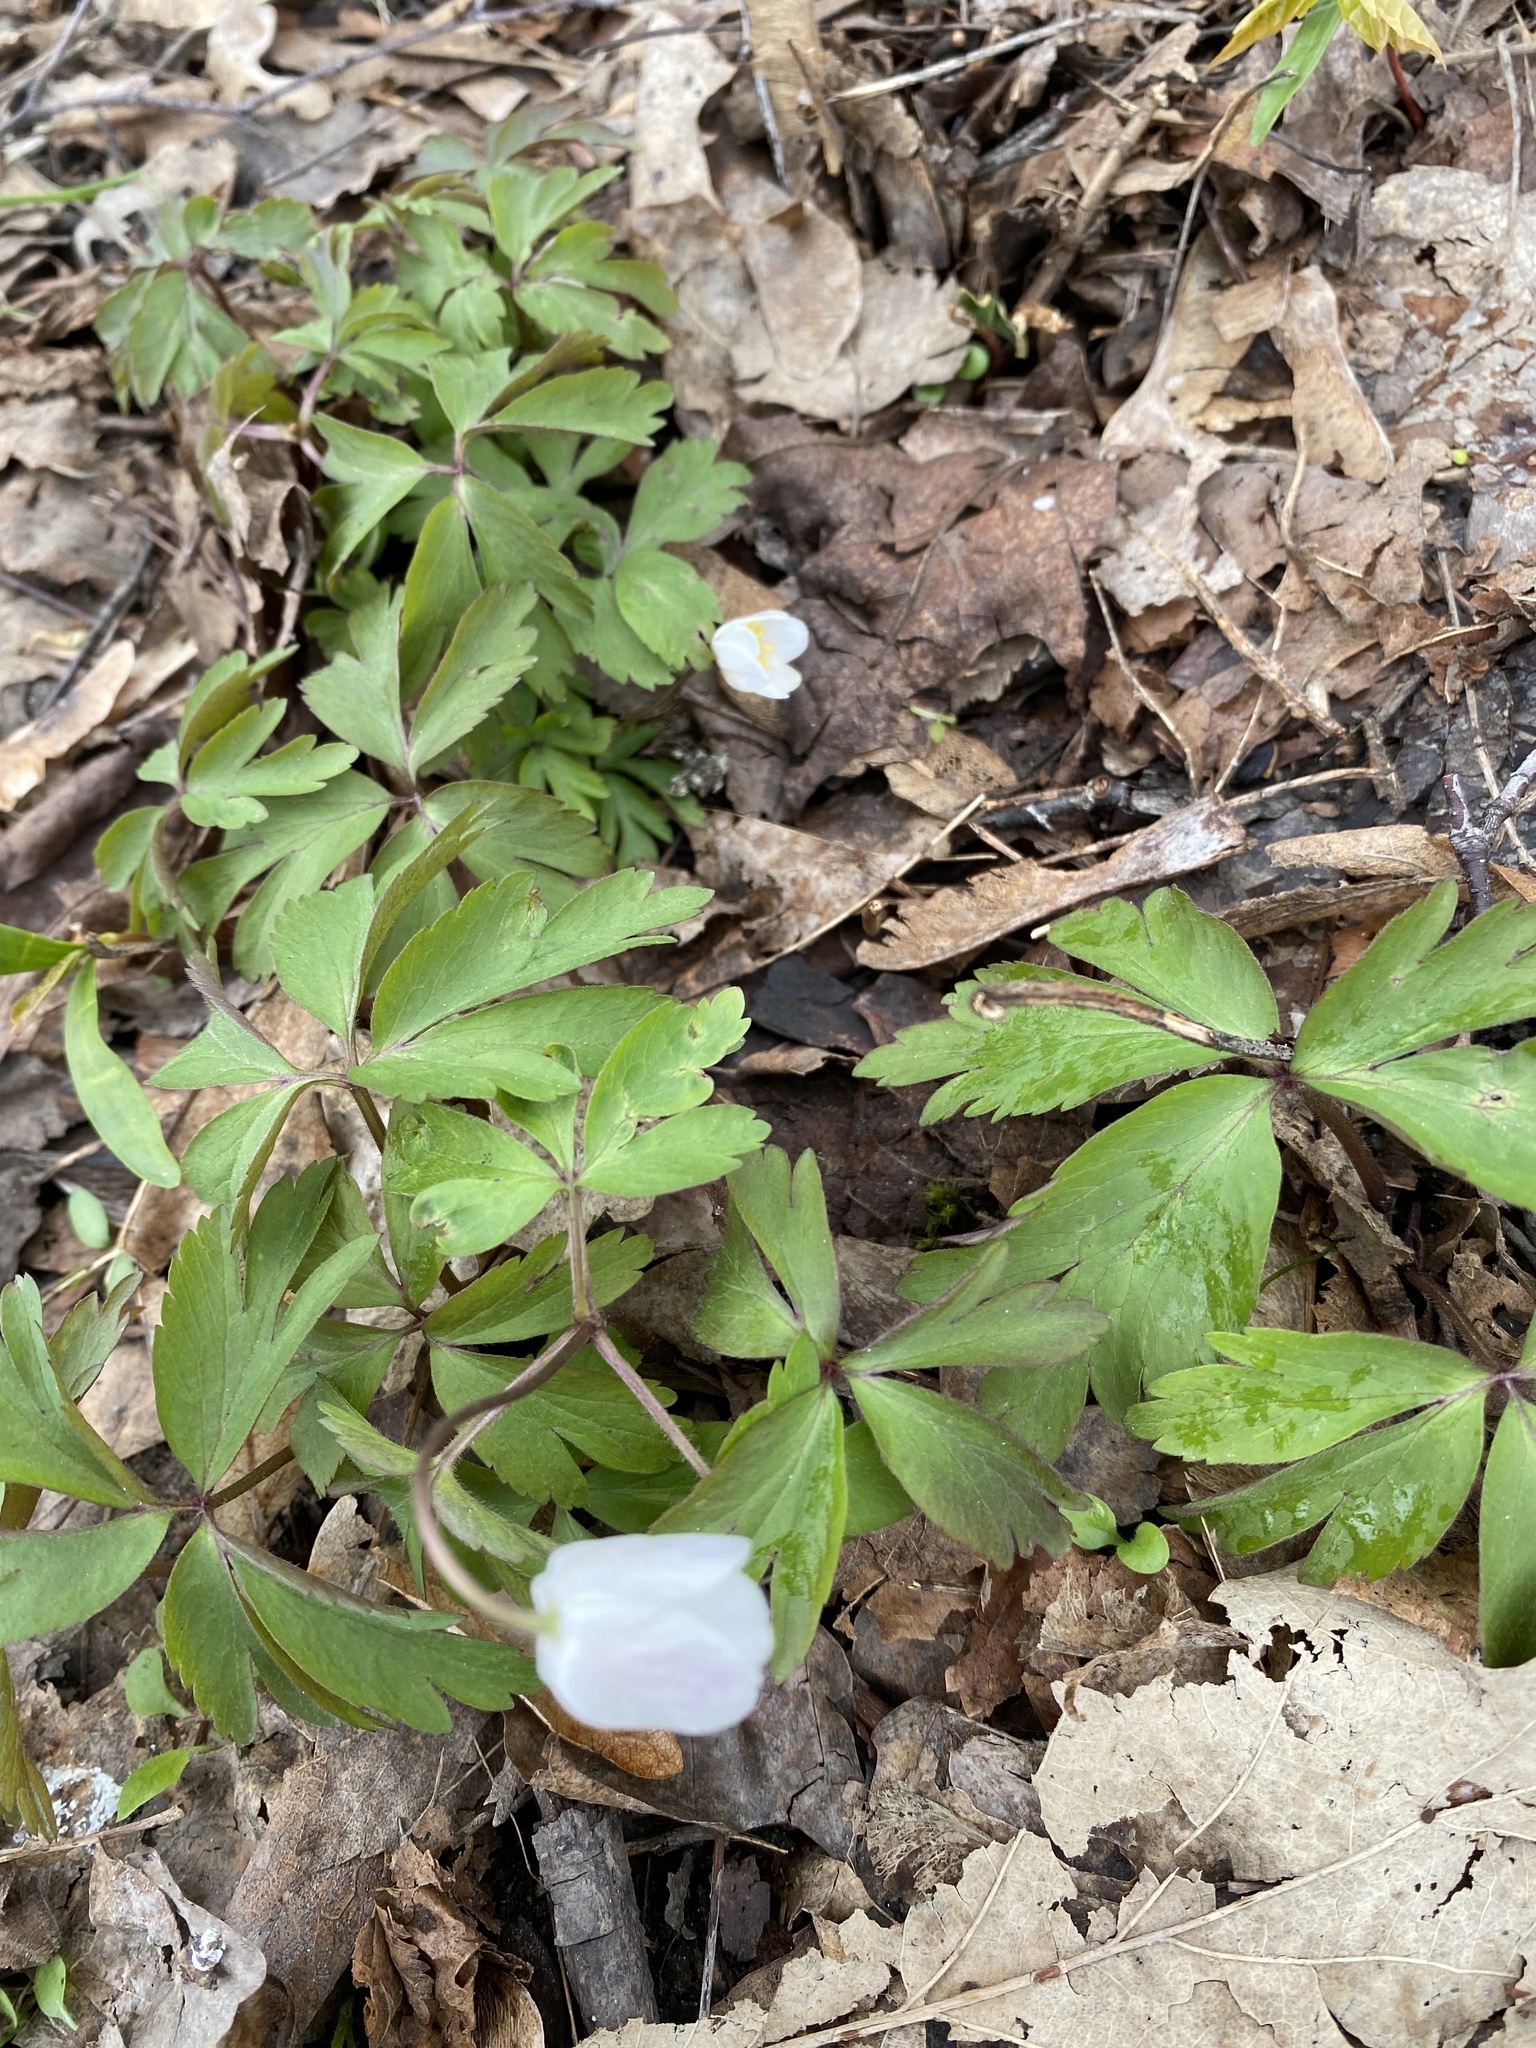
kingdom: Plantae
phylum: Tracheophyta
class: Magnoliopsida
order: Ranunculales
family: Ranunculaceae
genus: Anemone
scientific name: Anemone nemorosa
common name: Wood anemone
